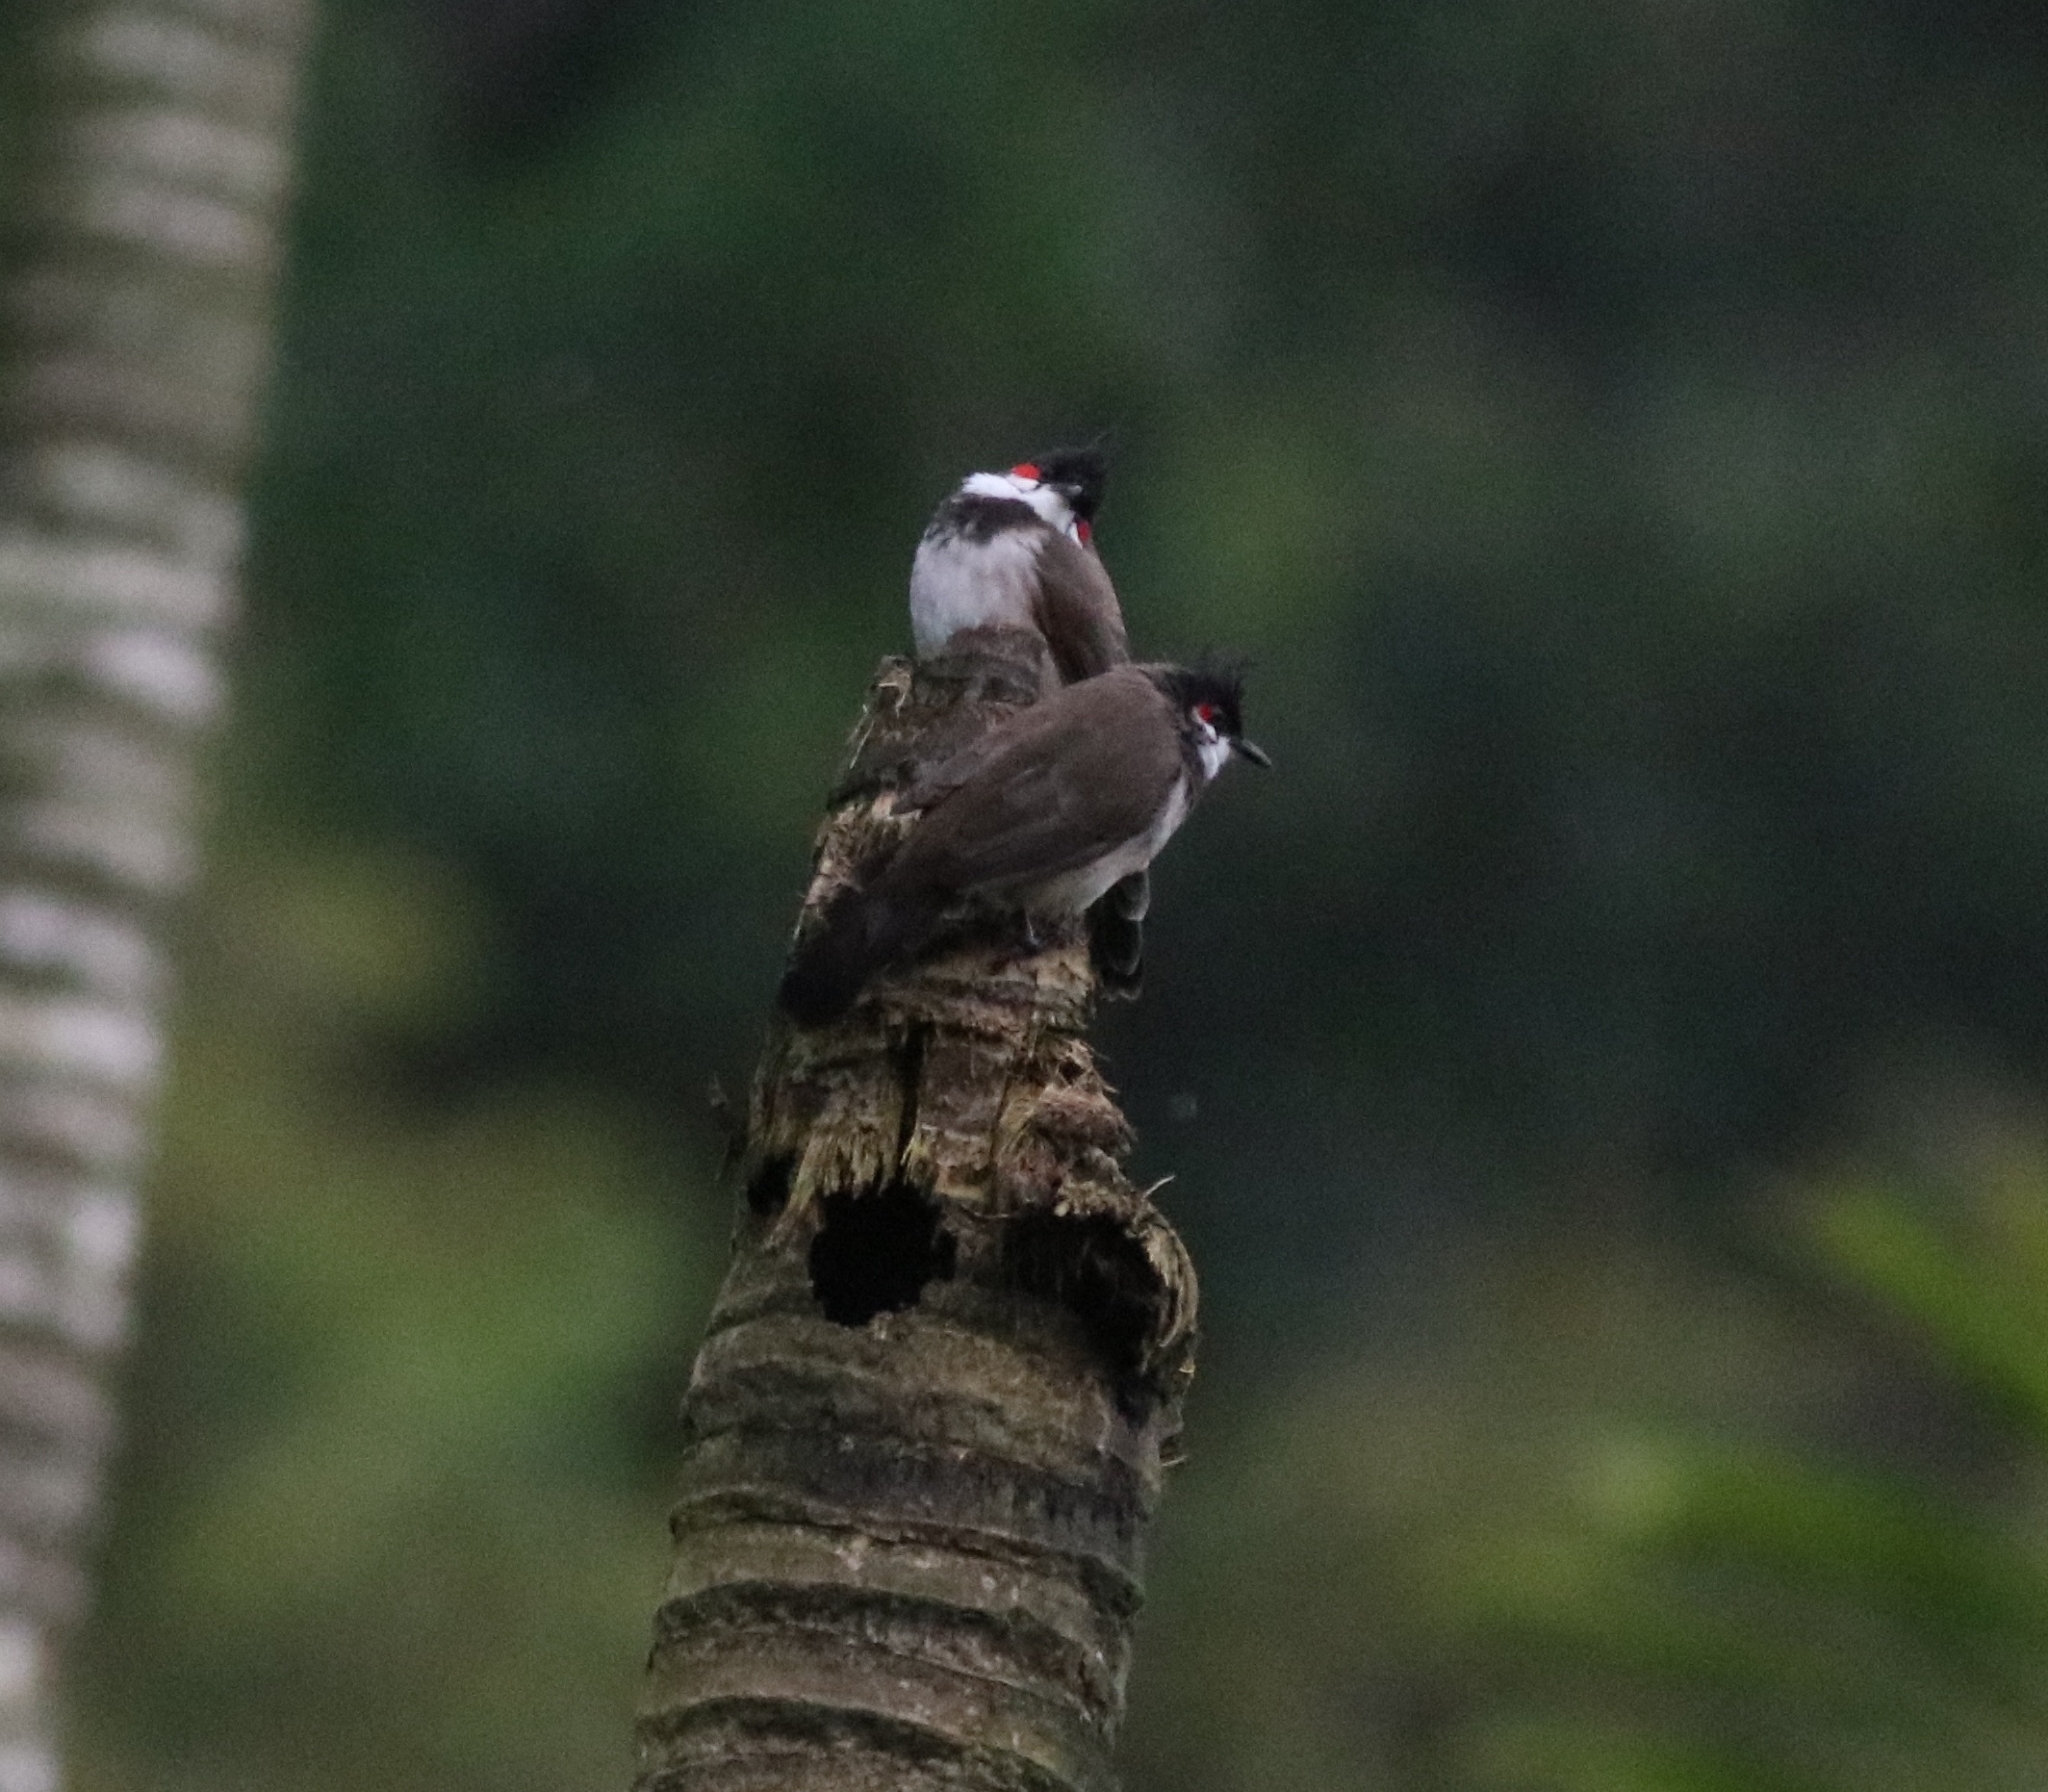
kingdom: Animalia
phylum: Chordata
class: Aves
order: Passeriformes
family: Pycnonotidae
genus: Pycnonotus
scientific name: Pycnonotus jocosus
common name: Red-whiskered bulbul
